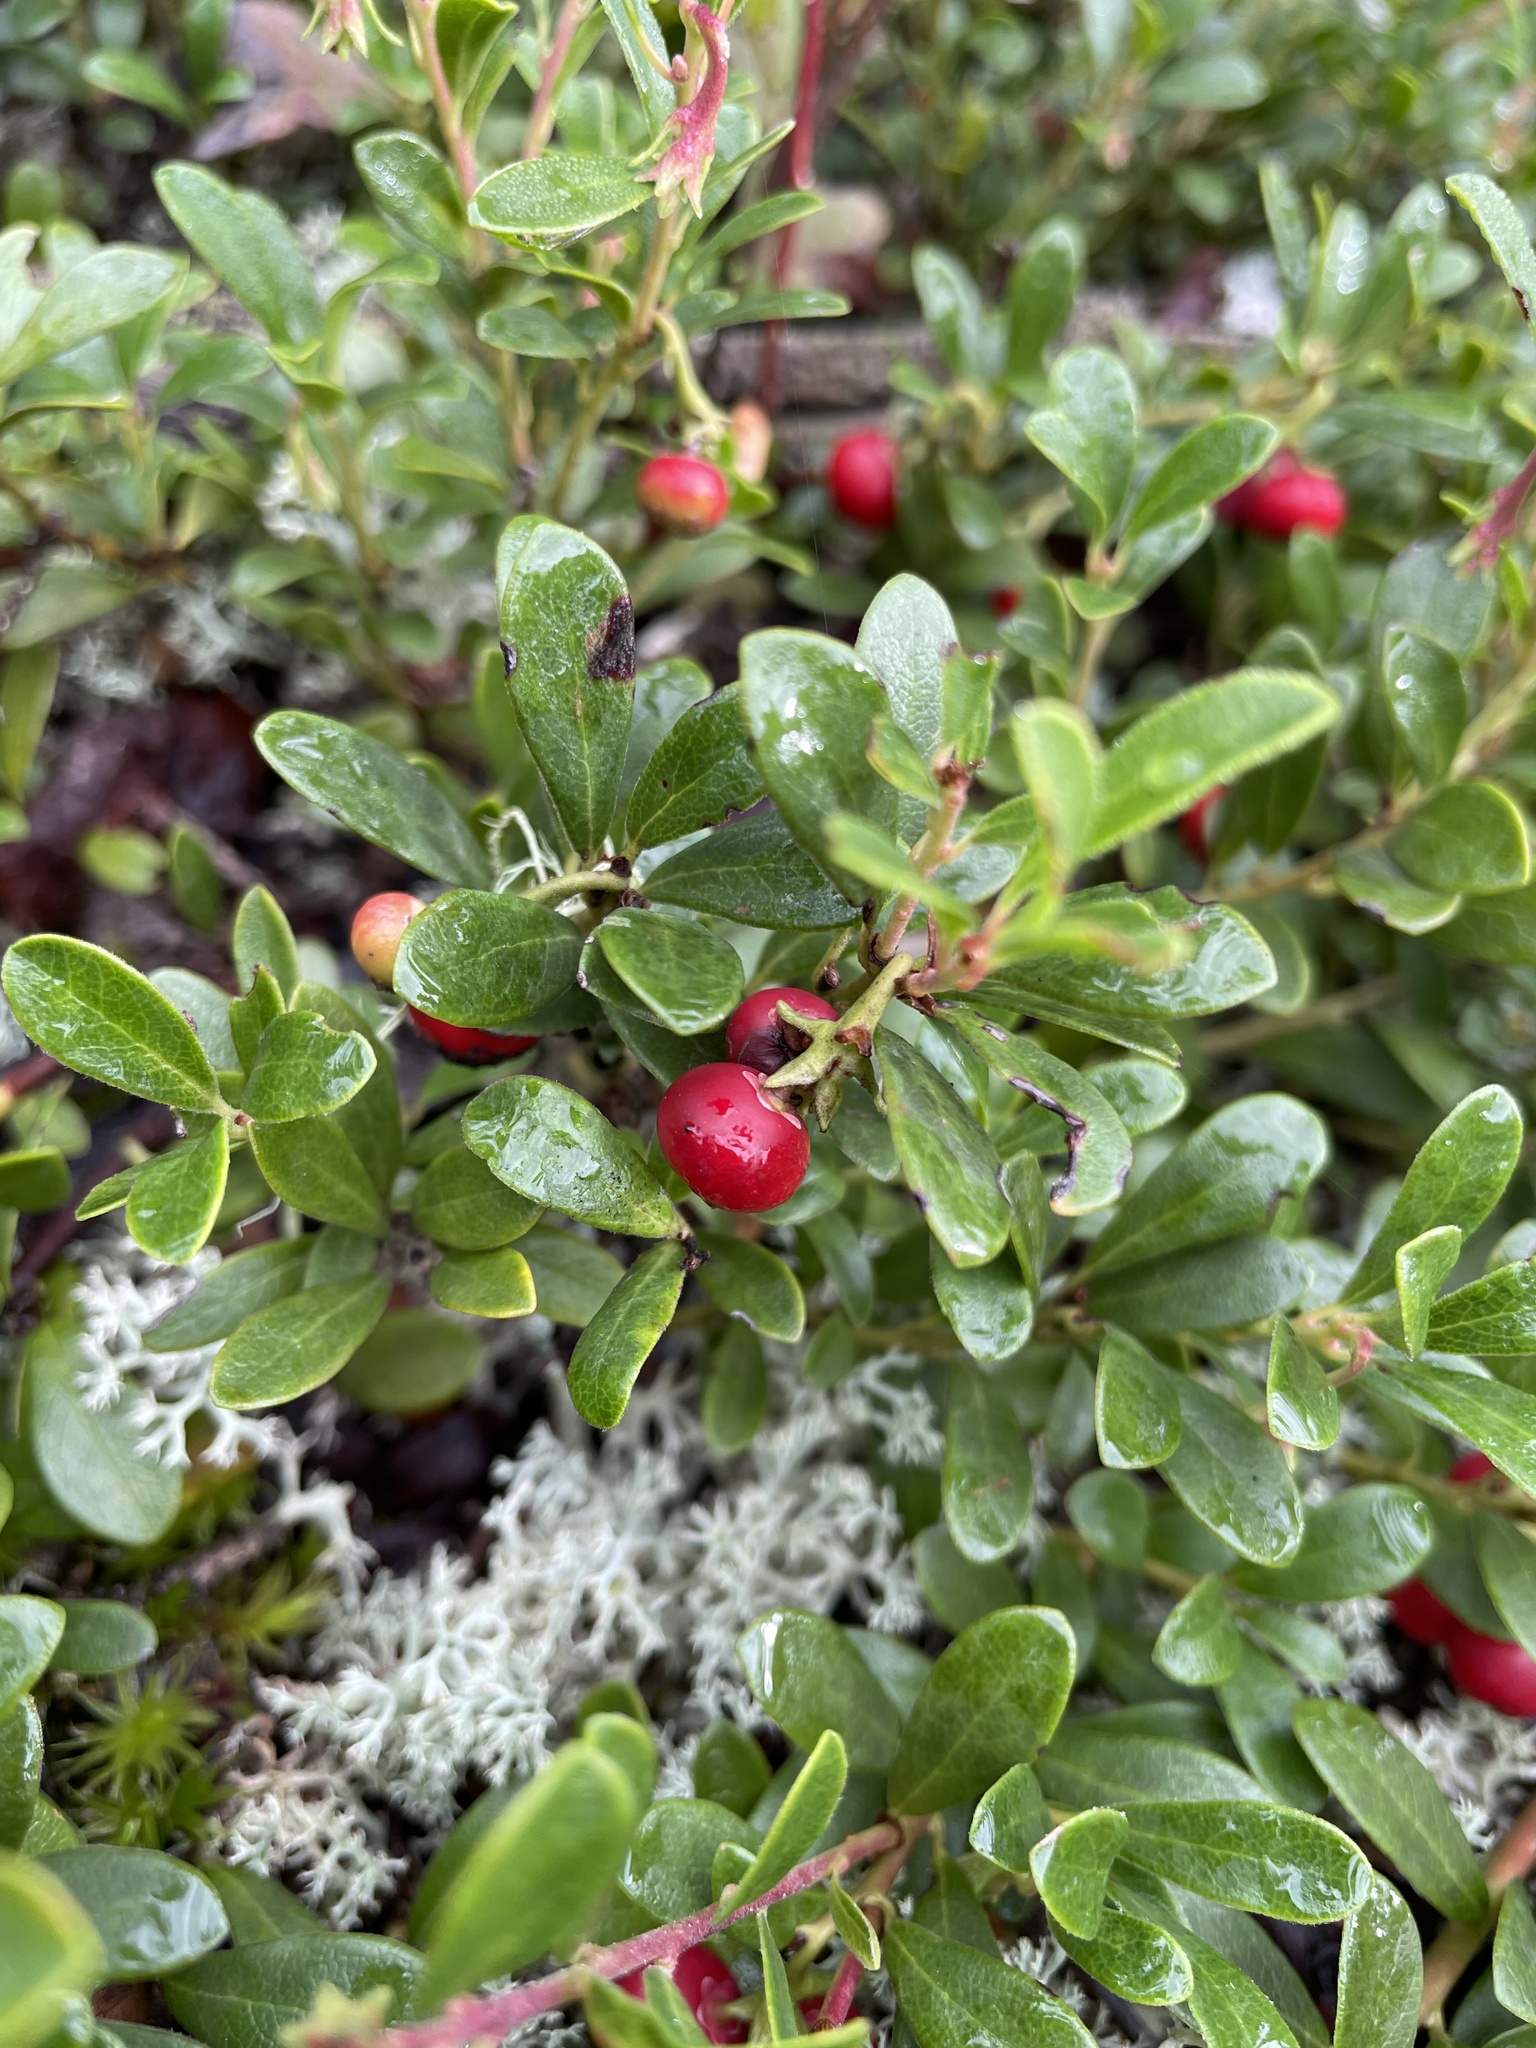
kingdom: Plantae
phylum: Tracheophyta
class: Magnoliopsida
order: Ericales
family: Ericaceae
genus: Arctostaphylos
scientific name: Arctostaphylos uva-ursi
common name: Bearberry
